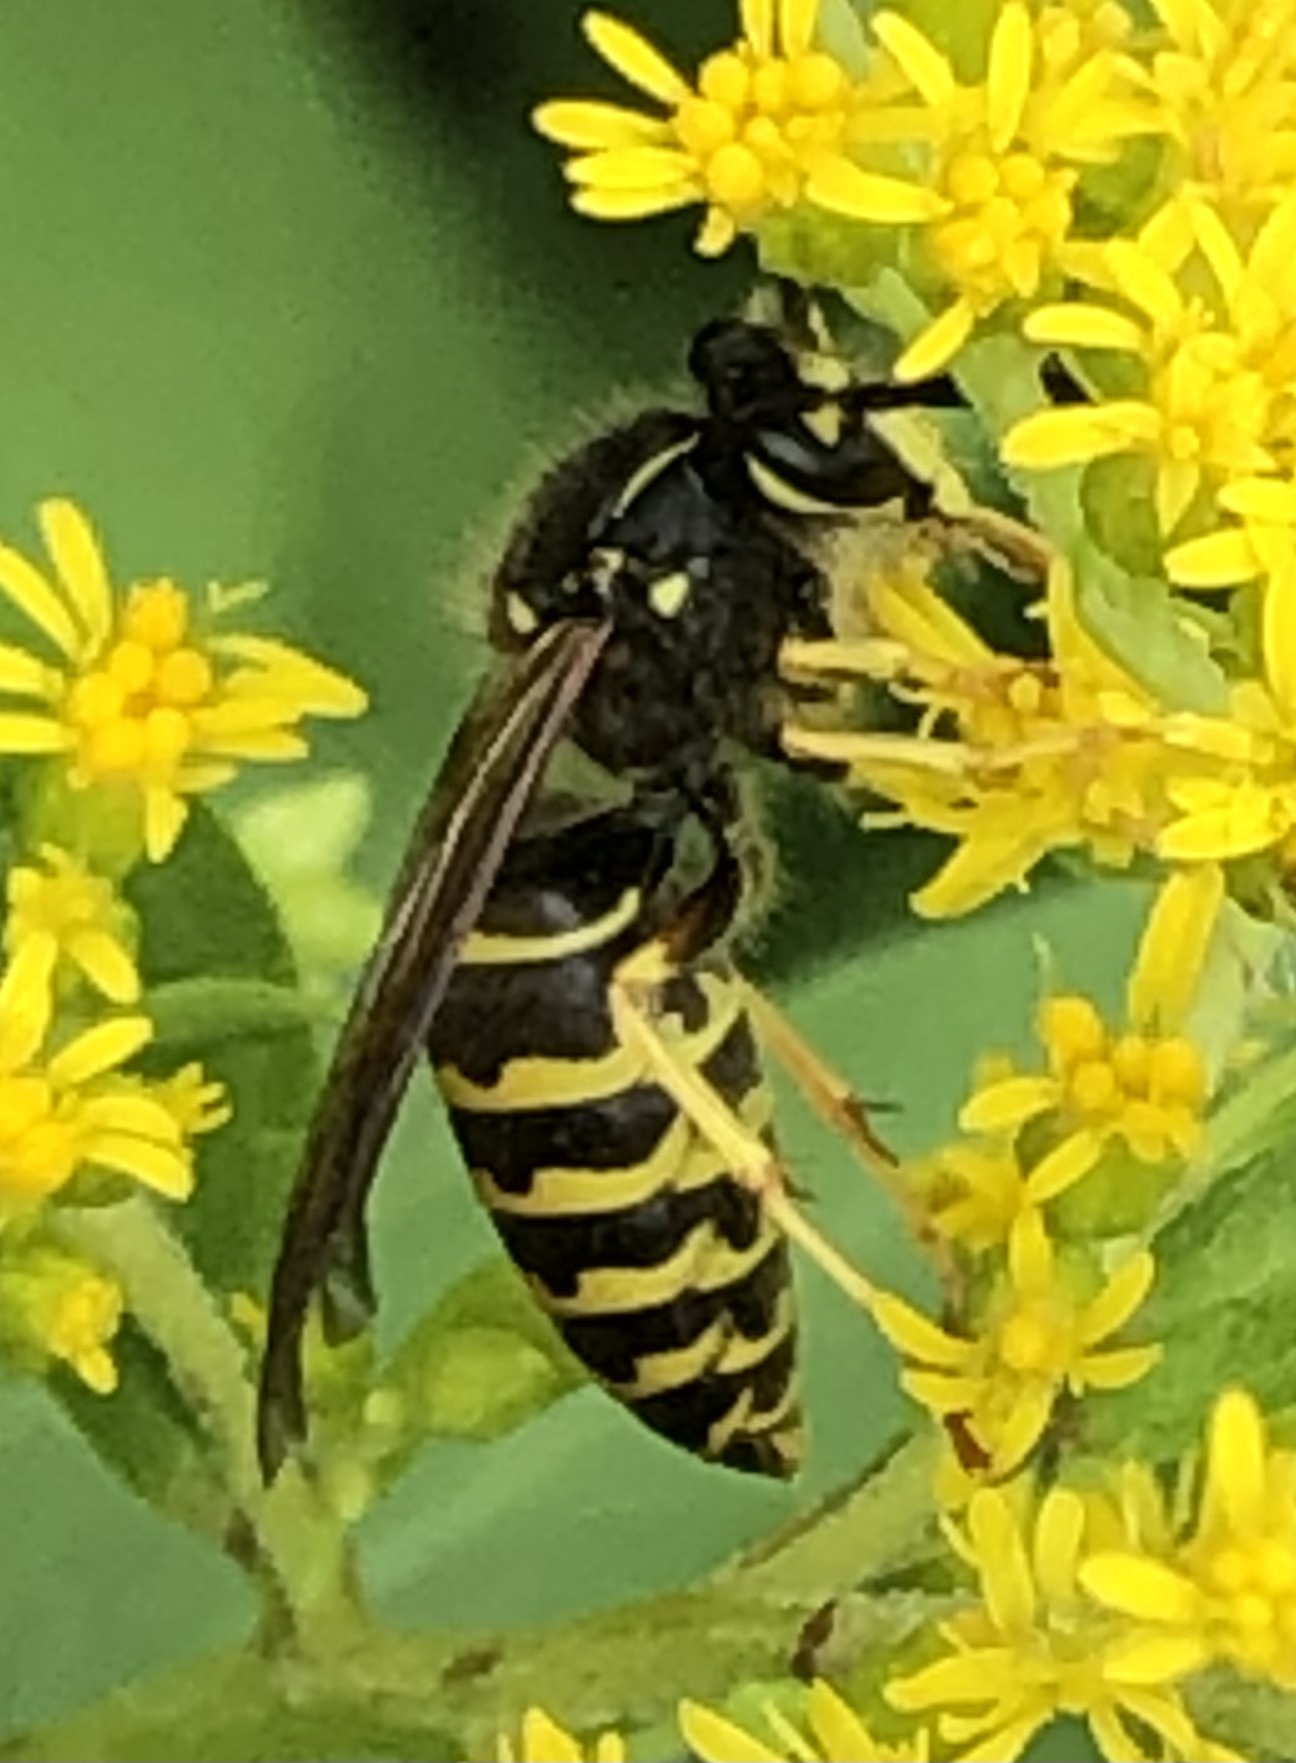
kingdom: Animalia
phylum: Arthropoda
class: Insecta
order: Hymenoptera
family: Vespidae
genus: Dolichovespula
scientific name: Dolichovespula arenaria
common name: Aerial yellowjacket
